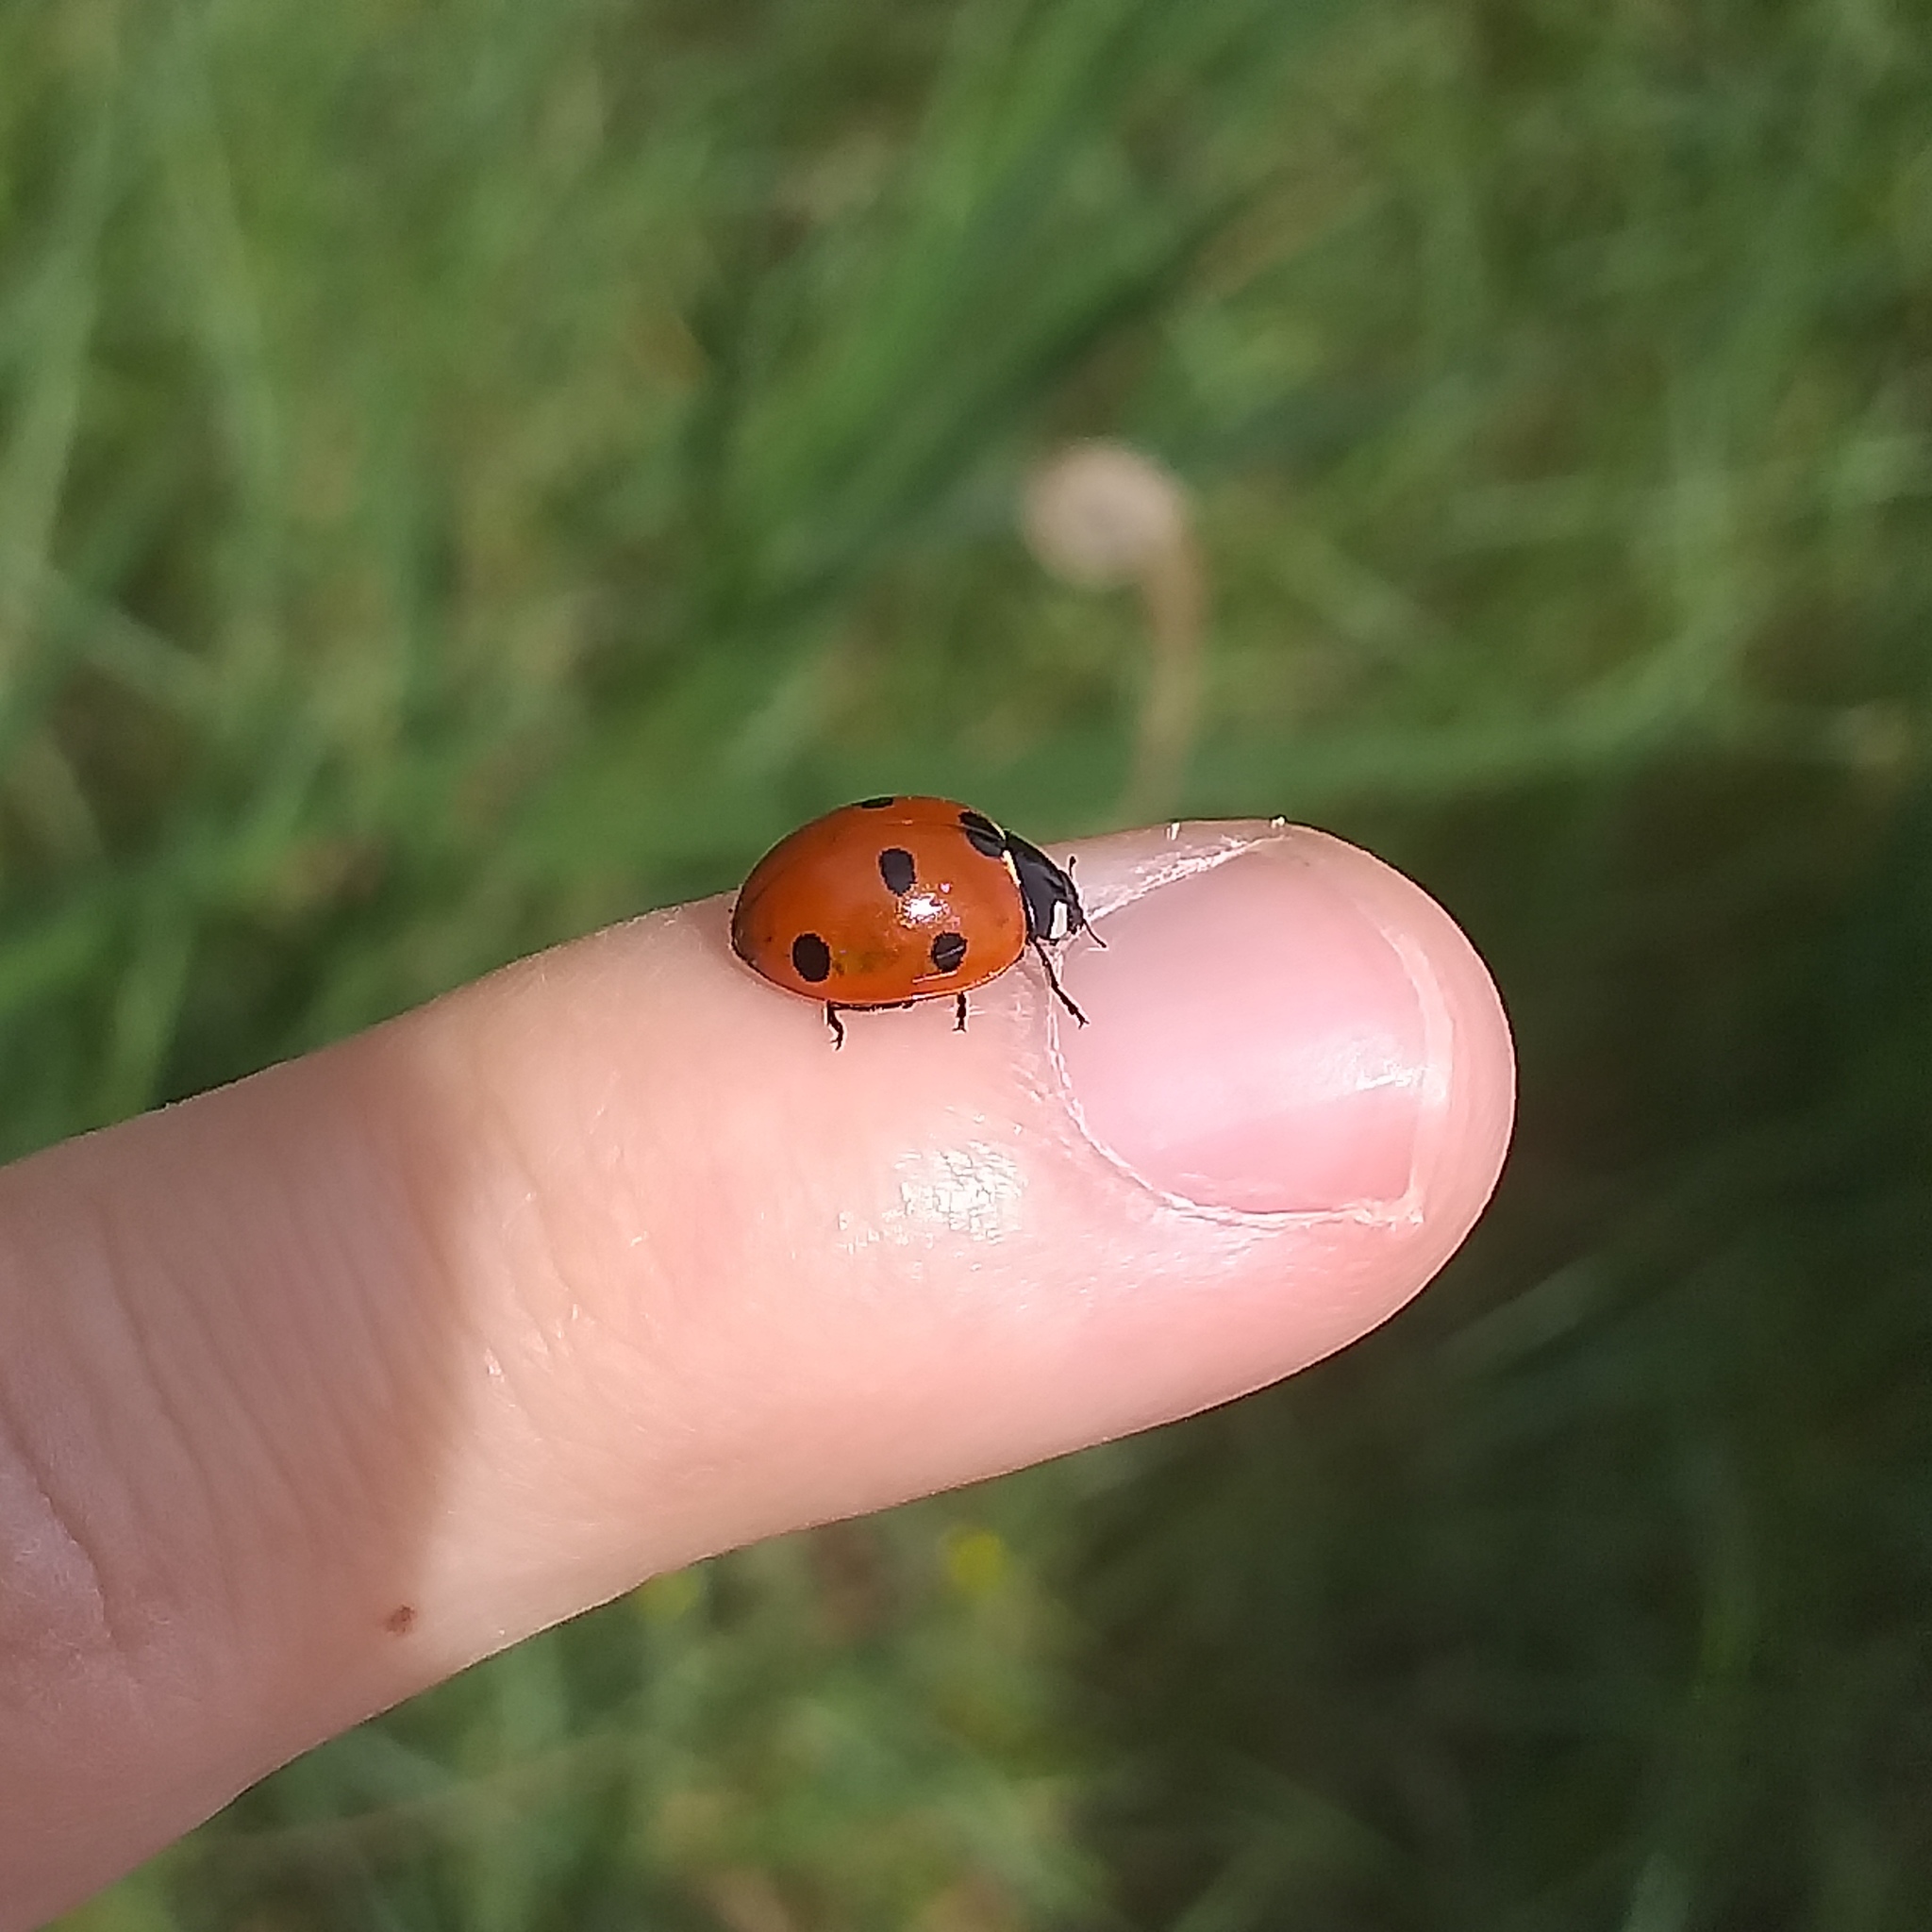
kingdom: Animalia
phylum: Arthropoda
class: Insecta
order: Coleoptera
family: Coccinellidae
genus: Coccinella
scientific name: Coccinella septempunctata
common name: Sevenspotted lady beetle
